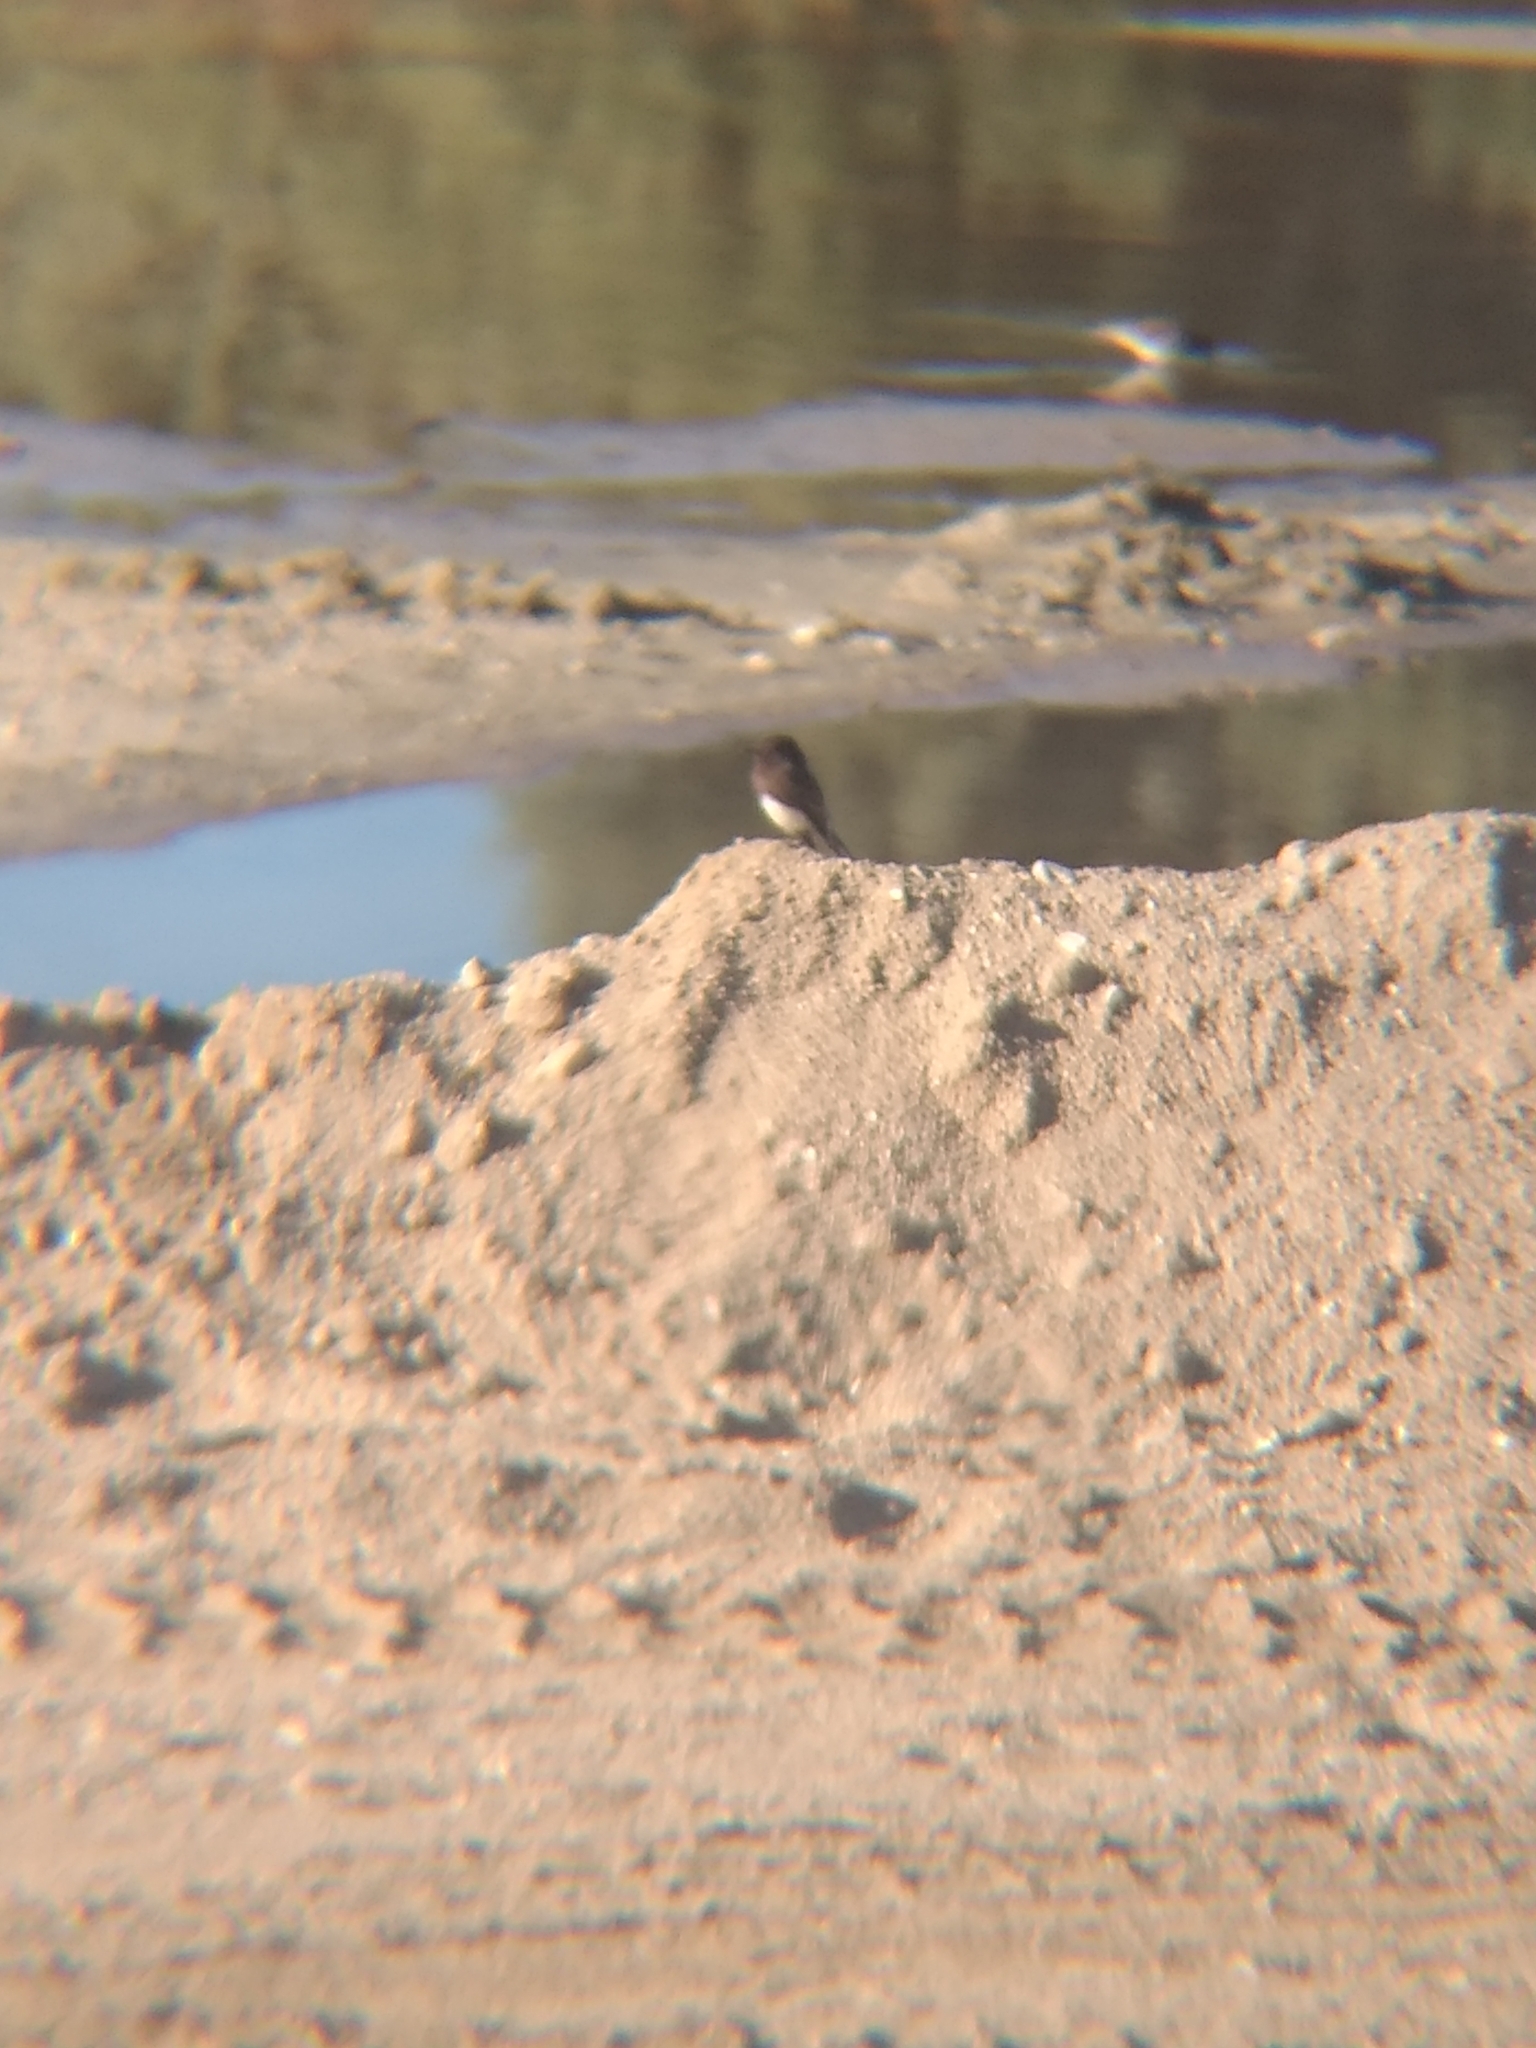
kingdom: Animalia
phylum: Chordata
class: Aves
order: Passeriformes
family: Tyrannidae
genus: Sayornis
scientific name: Sayornis nigricans
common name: Black phoebe
